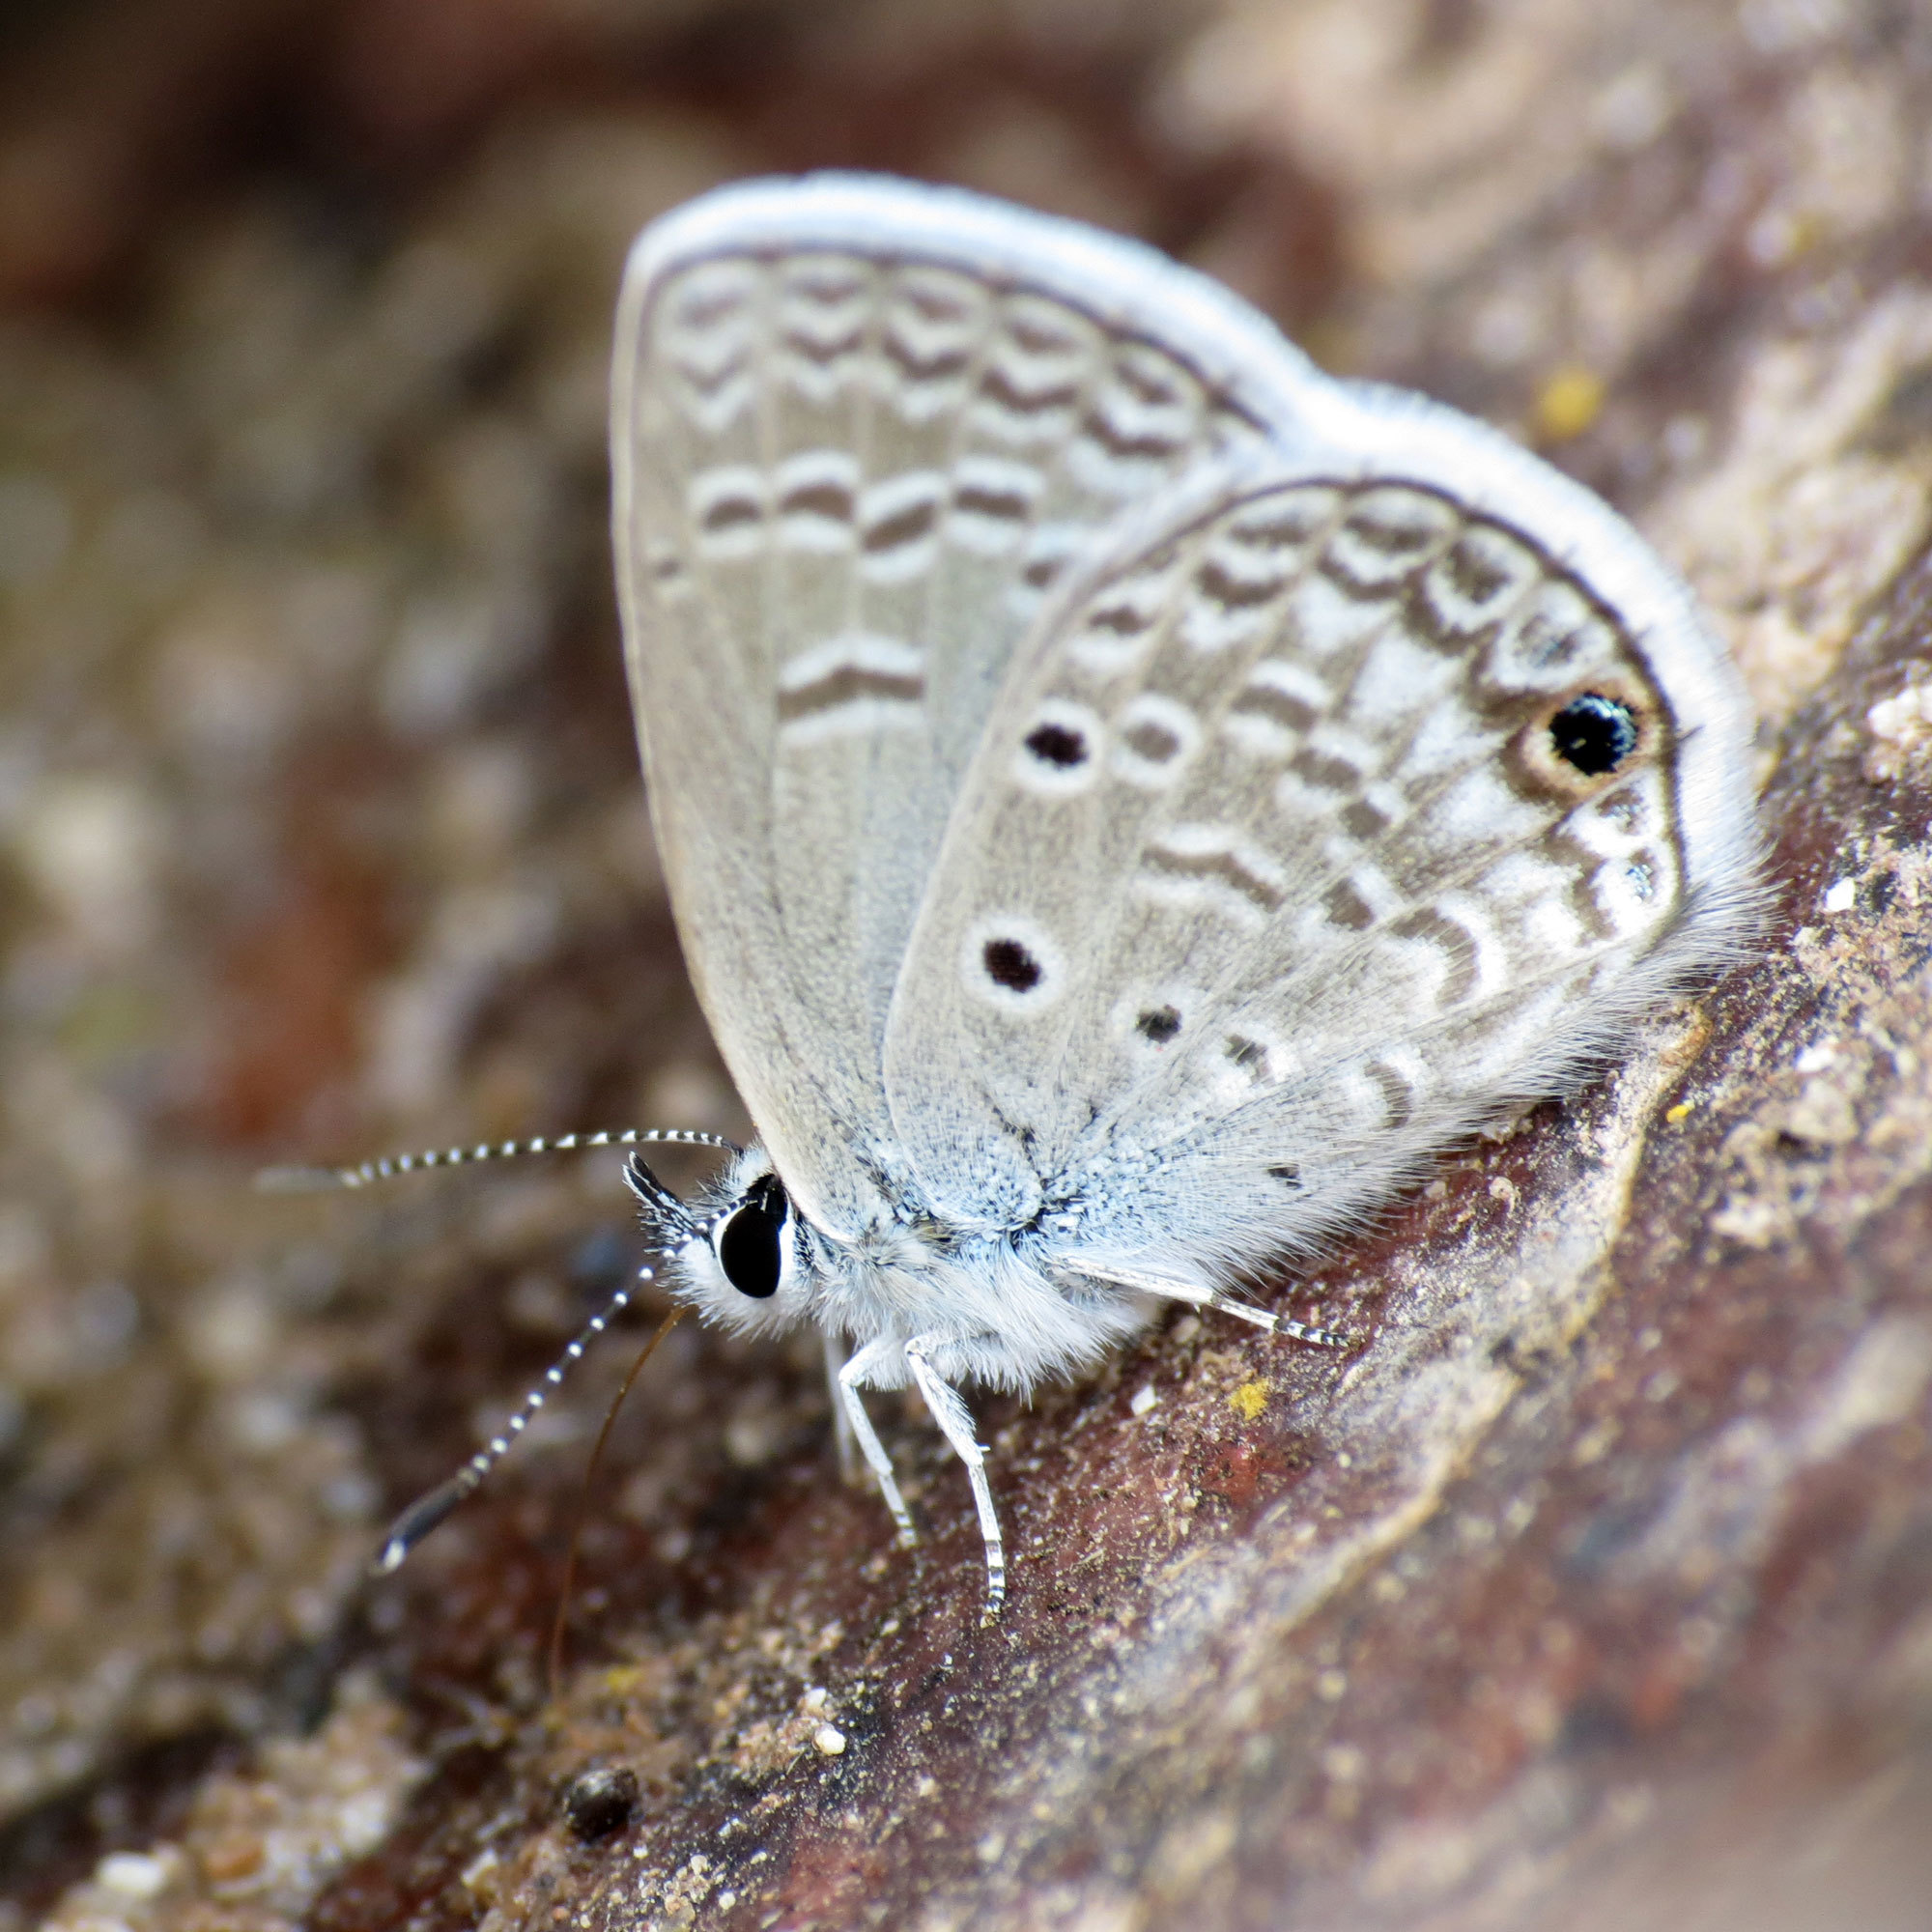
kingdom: Animalia
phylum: Arthropoda
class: Insecta
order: Lepidoptera
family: Lycaenidae
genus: Hemiargus
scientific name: Hemiargus ceraunus
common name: Ceraunus blue
